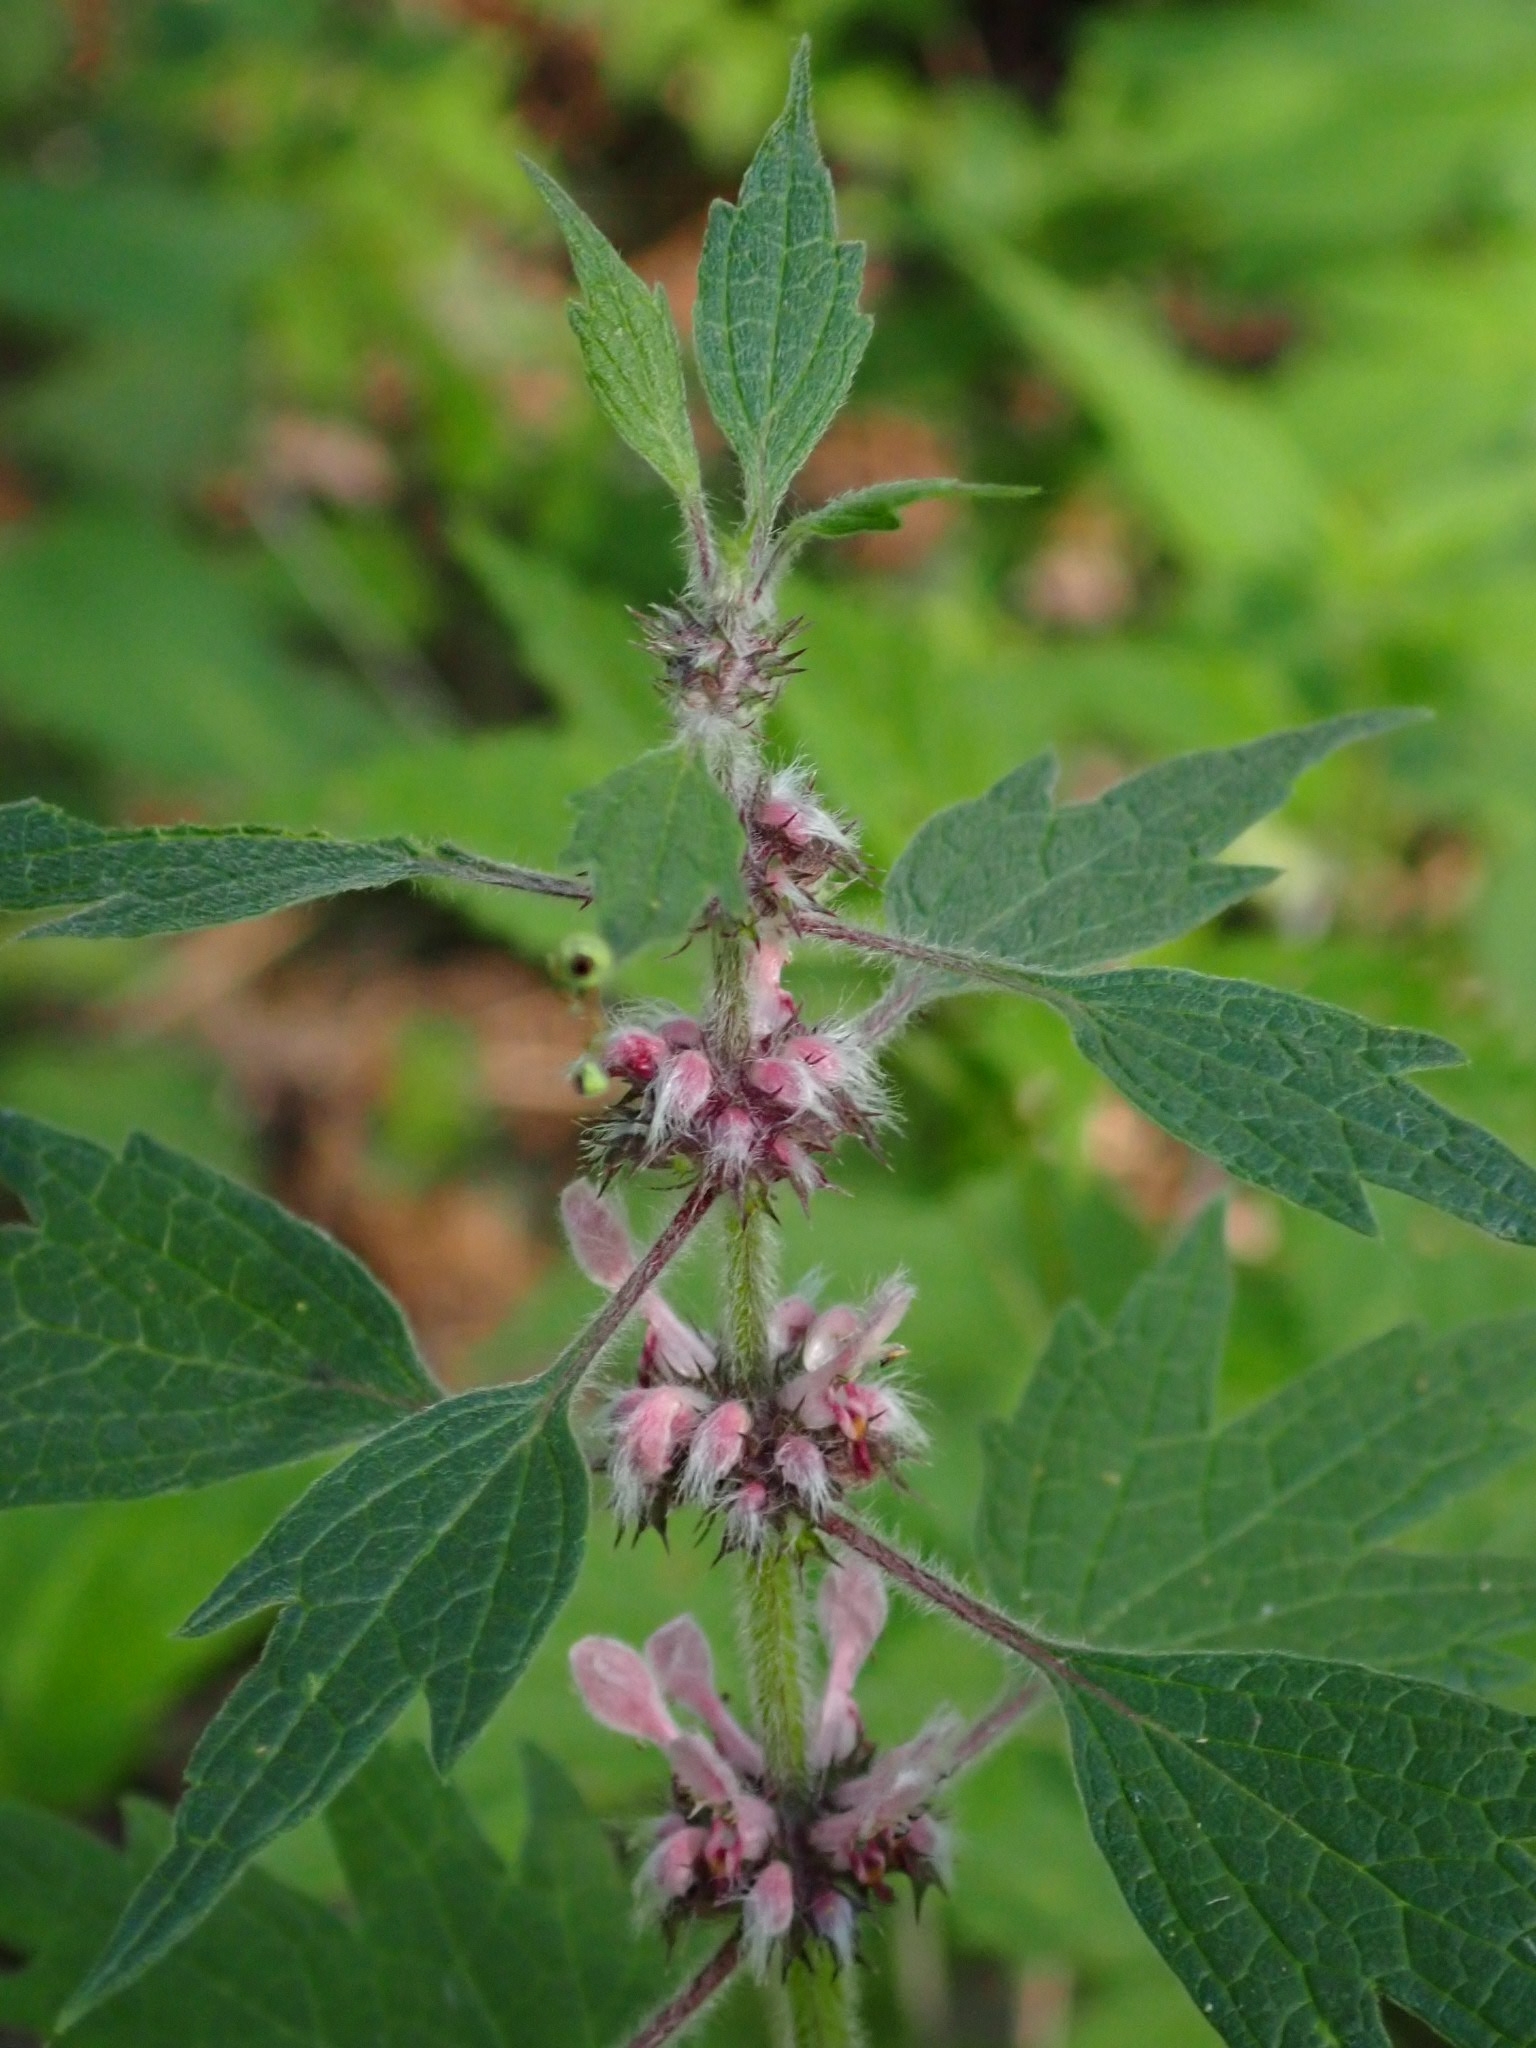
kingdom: Plantae
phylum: Tracheophyta
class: Magnoliopsida
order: Lamiales
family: Lamiaceae
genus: Leonurus
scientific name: Leonurus quinquelobatus
